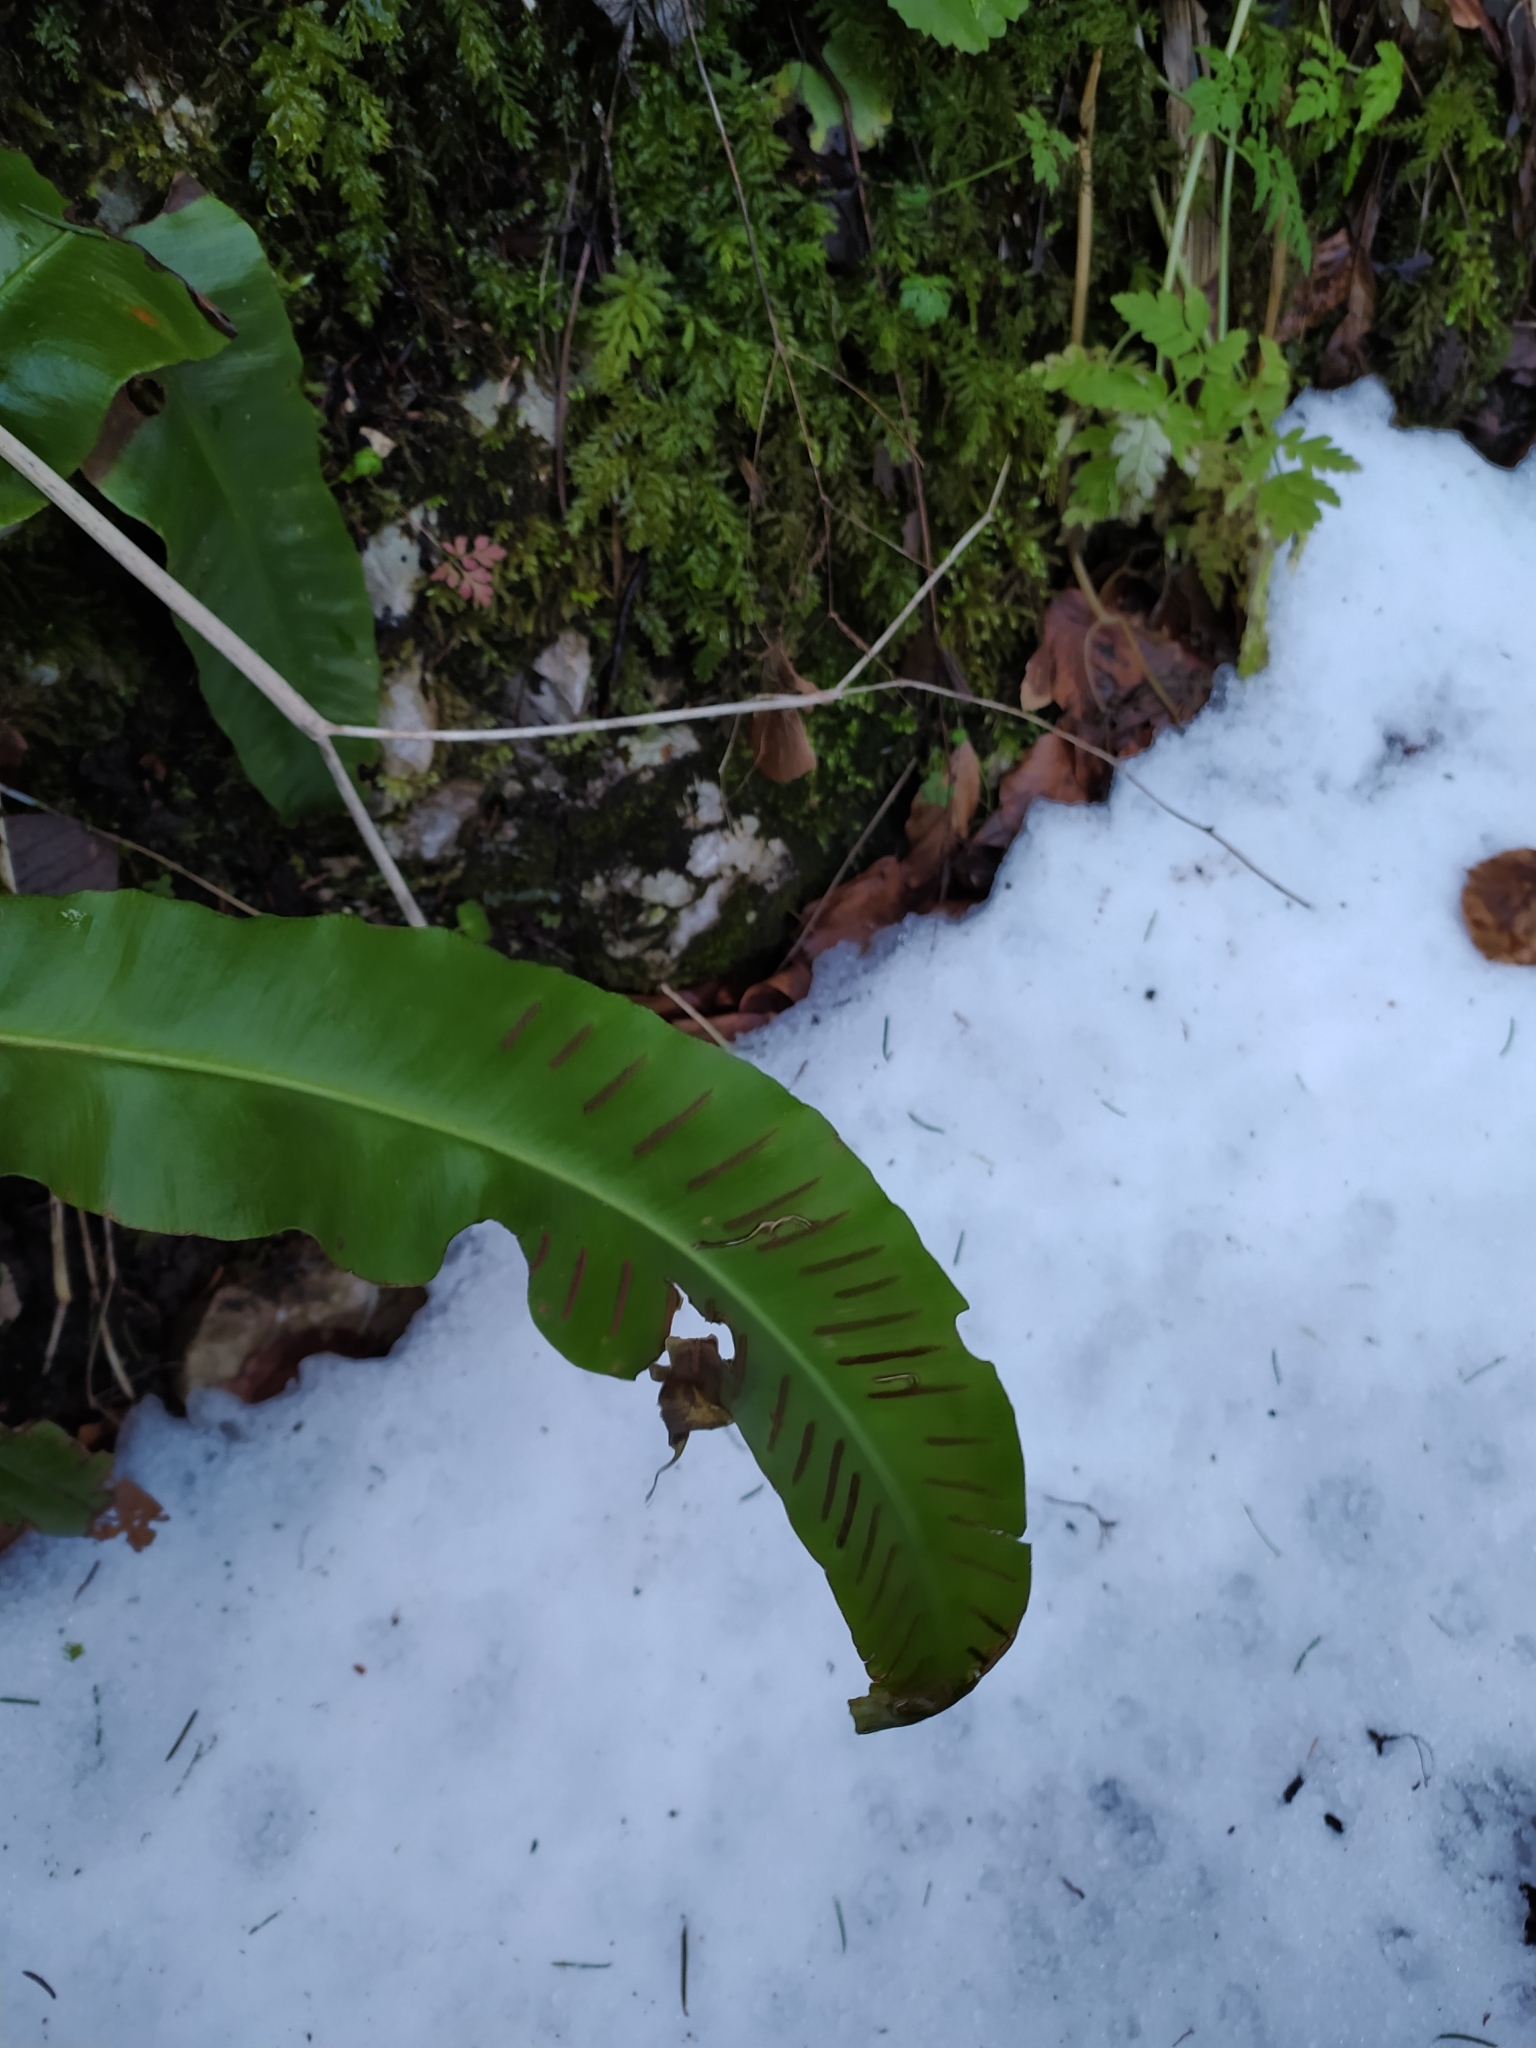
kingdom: Plantae
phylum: Tracheophyta
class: Polypodiopsida
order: Polypodiales
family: Aspleniaceae
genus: Asplenium
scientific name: Asplenium scolopendrium
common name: Hart's-tongue fern
